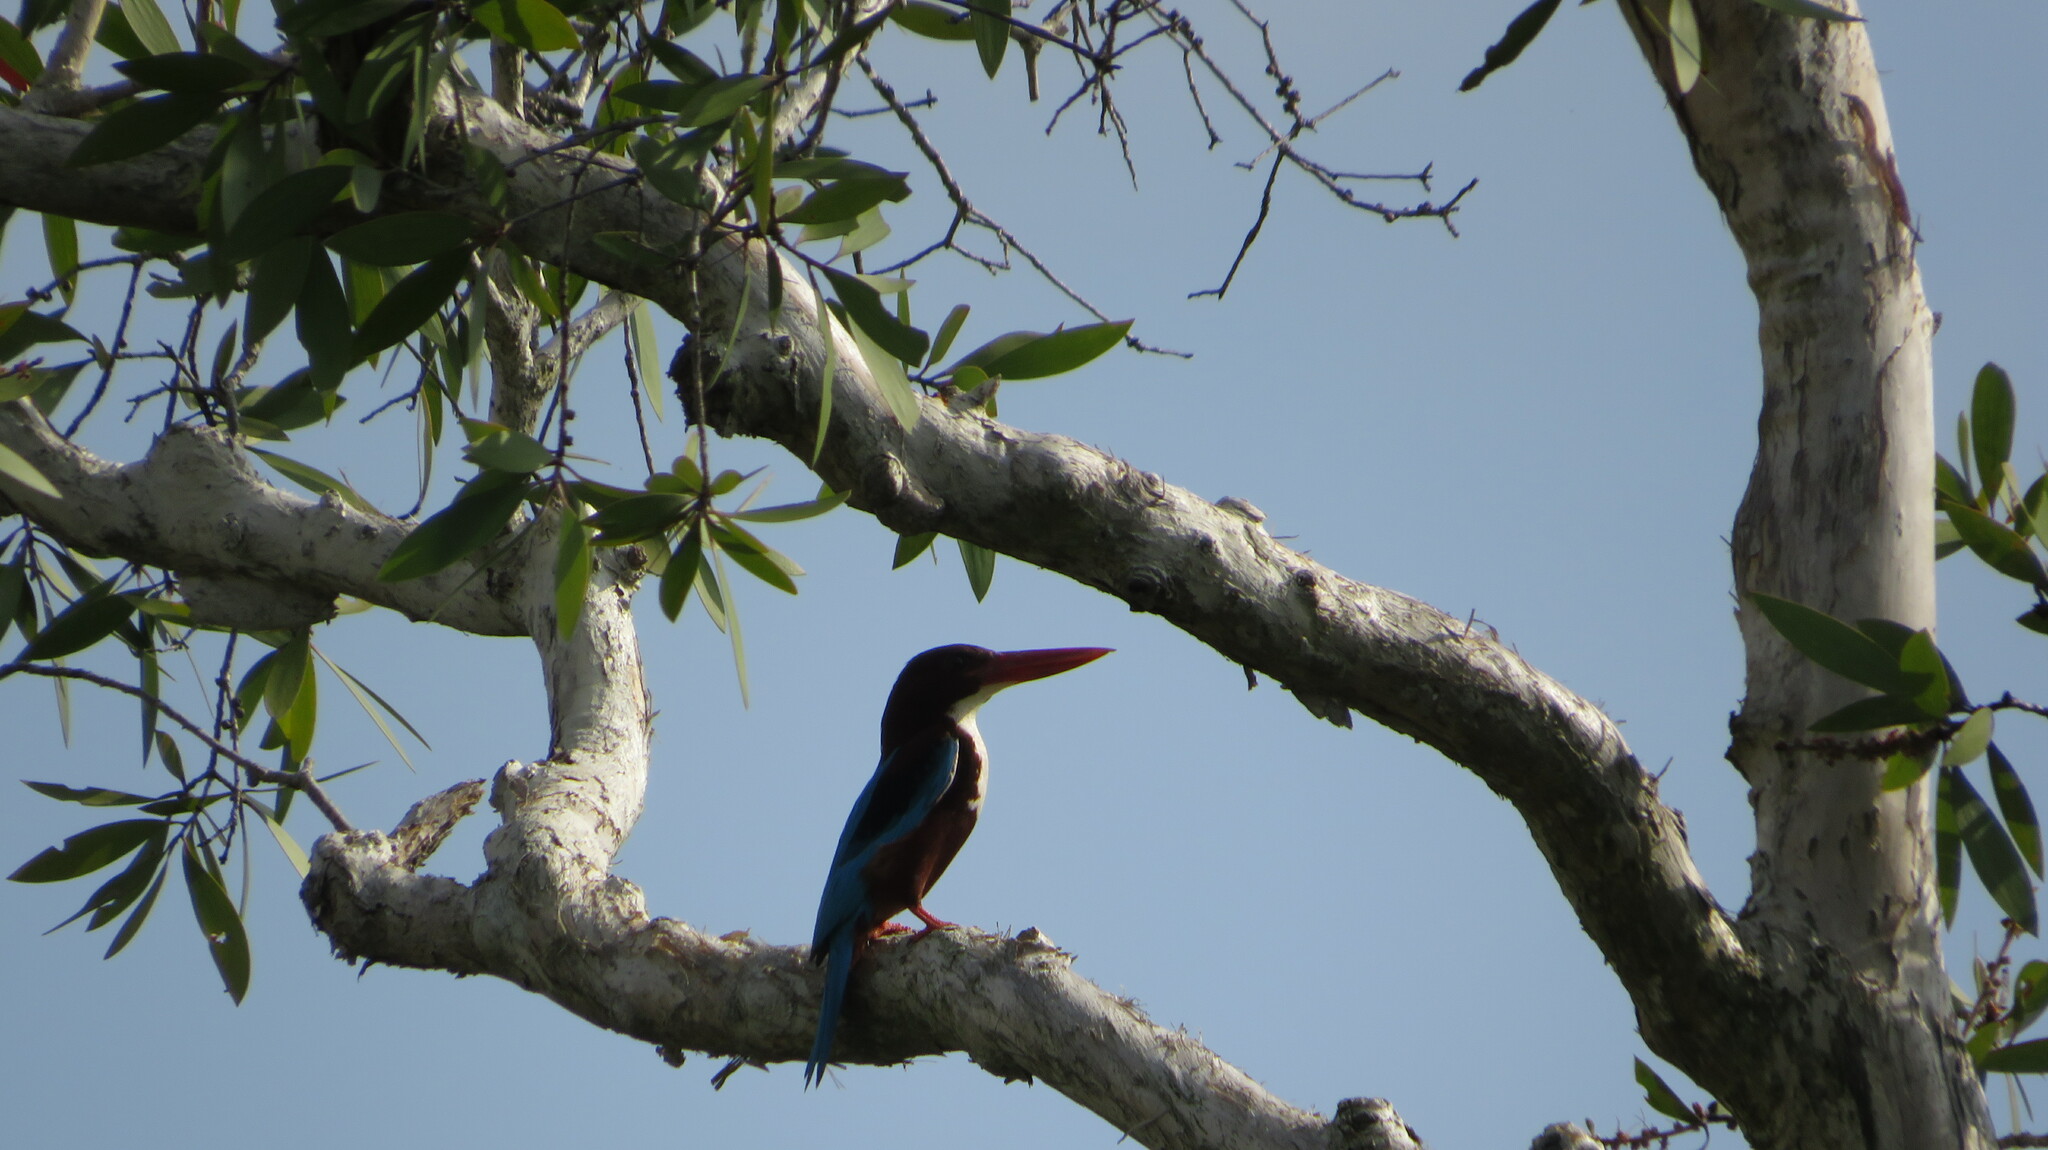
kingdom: Animalia
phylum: Chordata
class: Aves
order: Coraciiformes
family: Alcedinidae
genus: Halcyon
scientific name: Halcyon smyrnensis
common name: White-throated kingfisher
